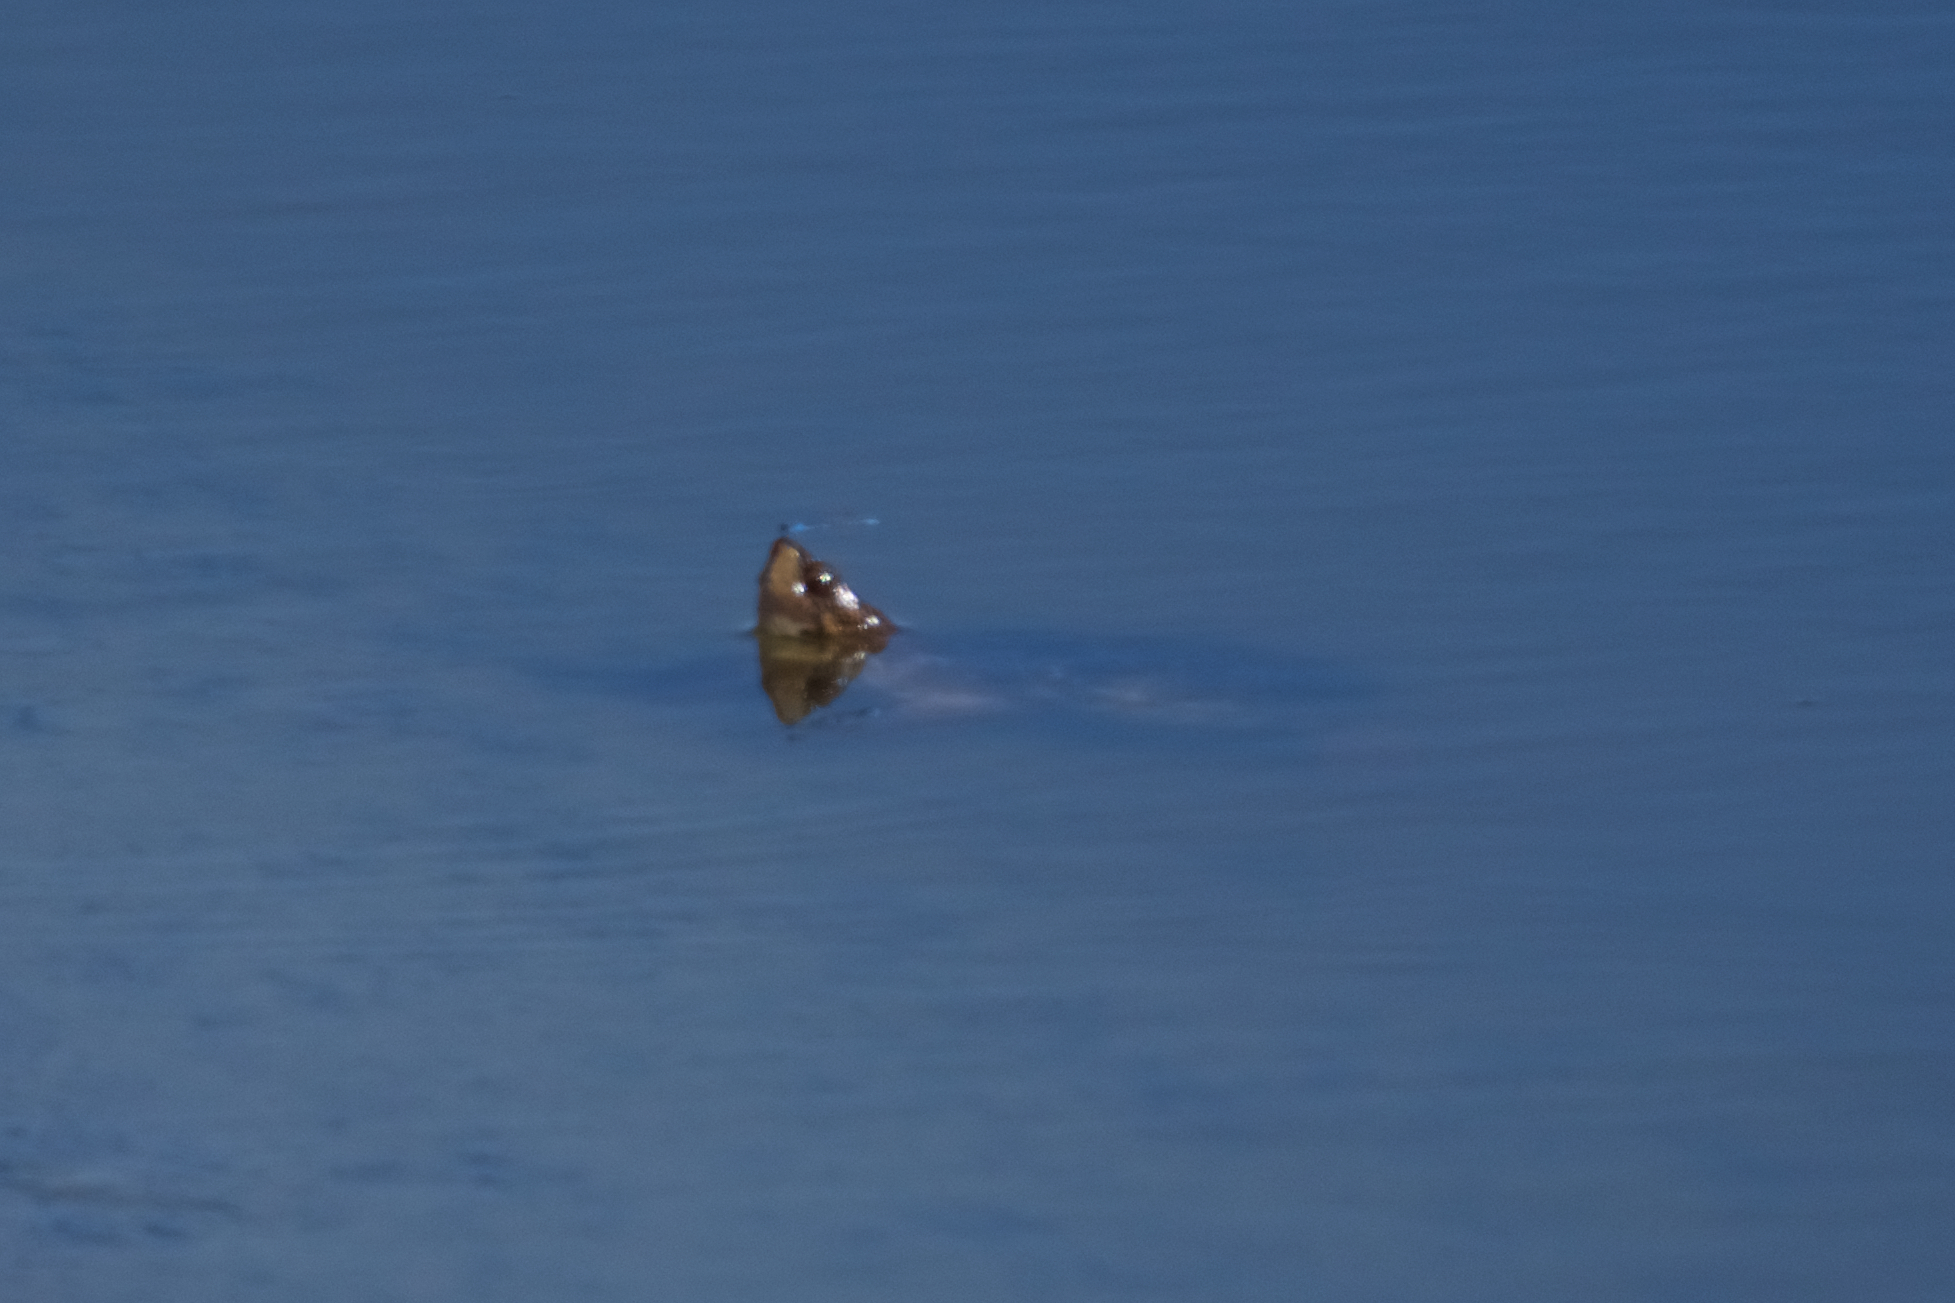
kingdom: Animalia
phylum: Chordata
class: Testudines
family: Emydidae
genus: Actinemys
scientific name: Actinemys marmorata
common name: Western pond turtle
